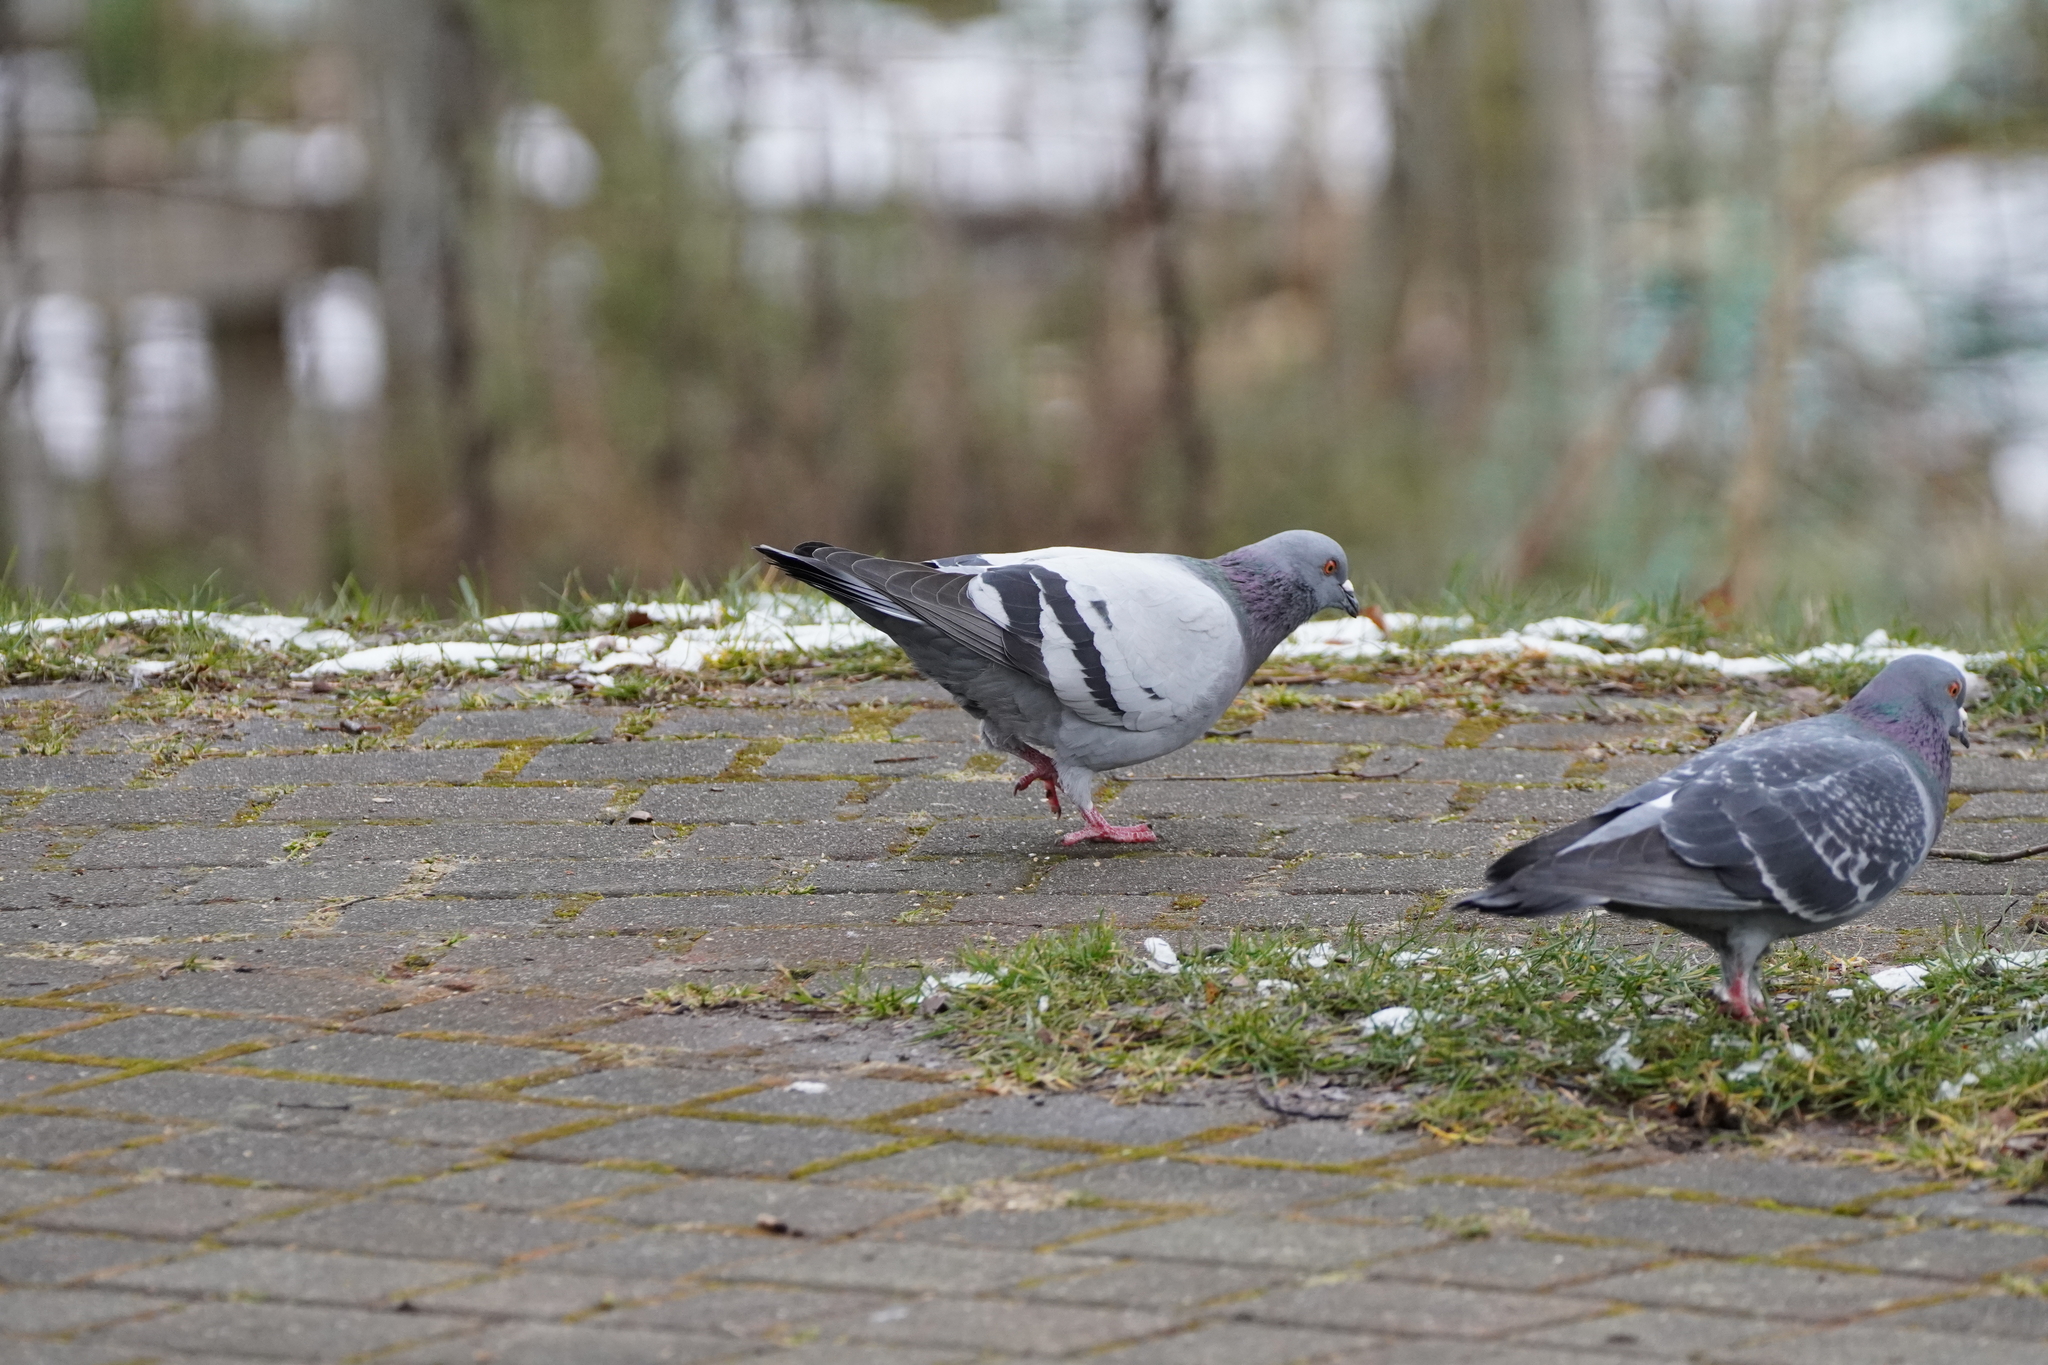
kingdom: Animalia
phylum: Chordata
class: Aves
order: Columbiformes
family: Columbidae
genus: Columba
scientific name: Columba livia
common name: Rock pigeon
